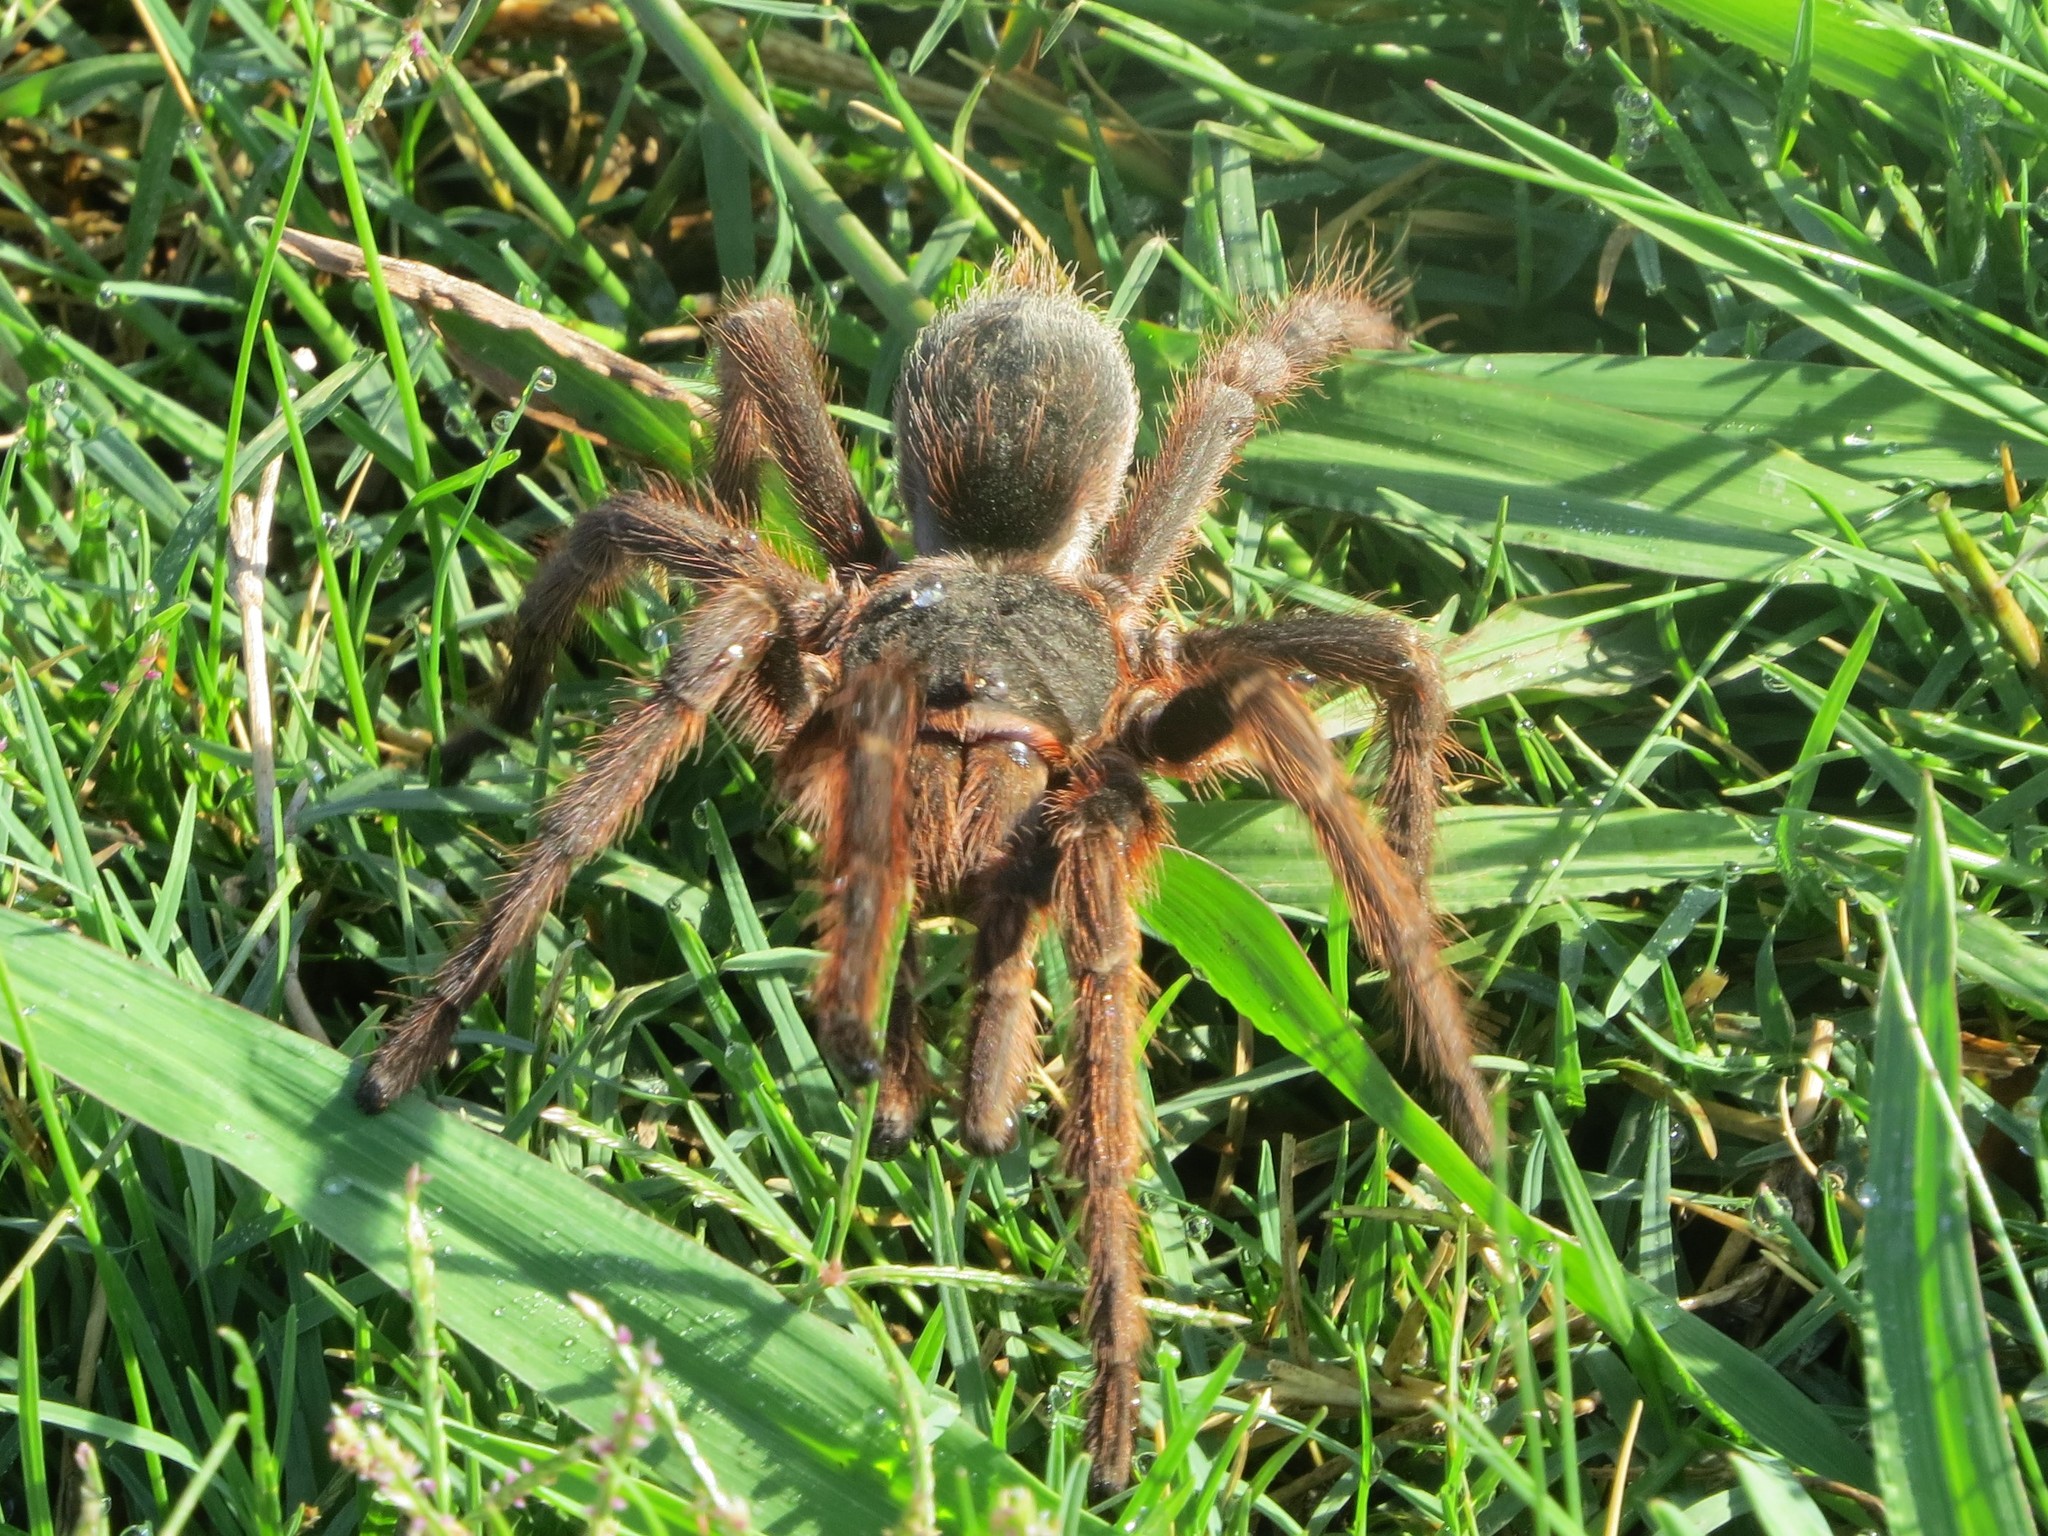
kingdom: Animalia
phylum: Arthropoda
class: Arachnida
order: Araneae
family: Theraphosidae
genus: Acanthoscurria
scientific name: Acanthoscurria cordubensis
